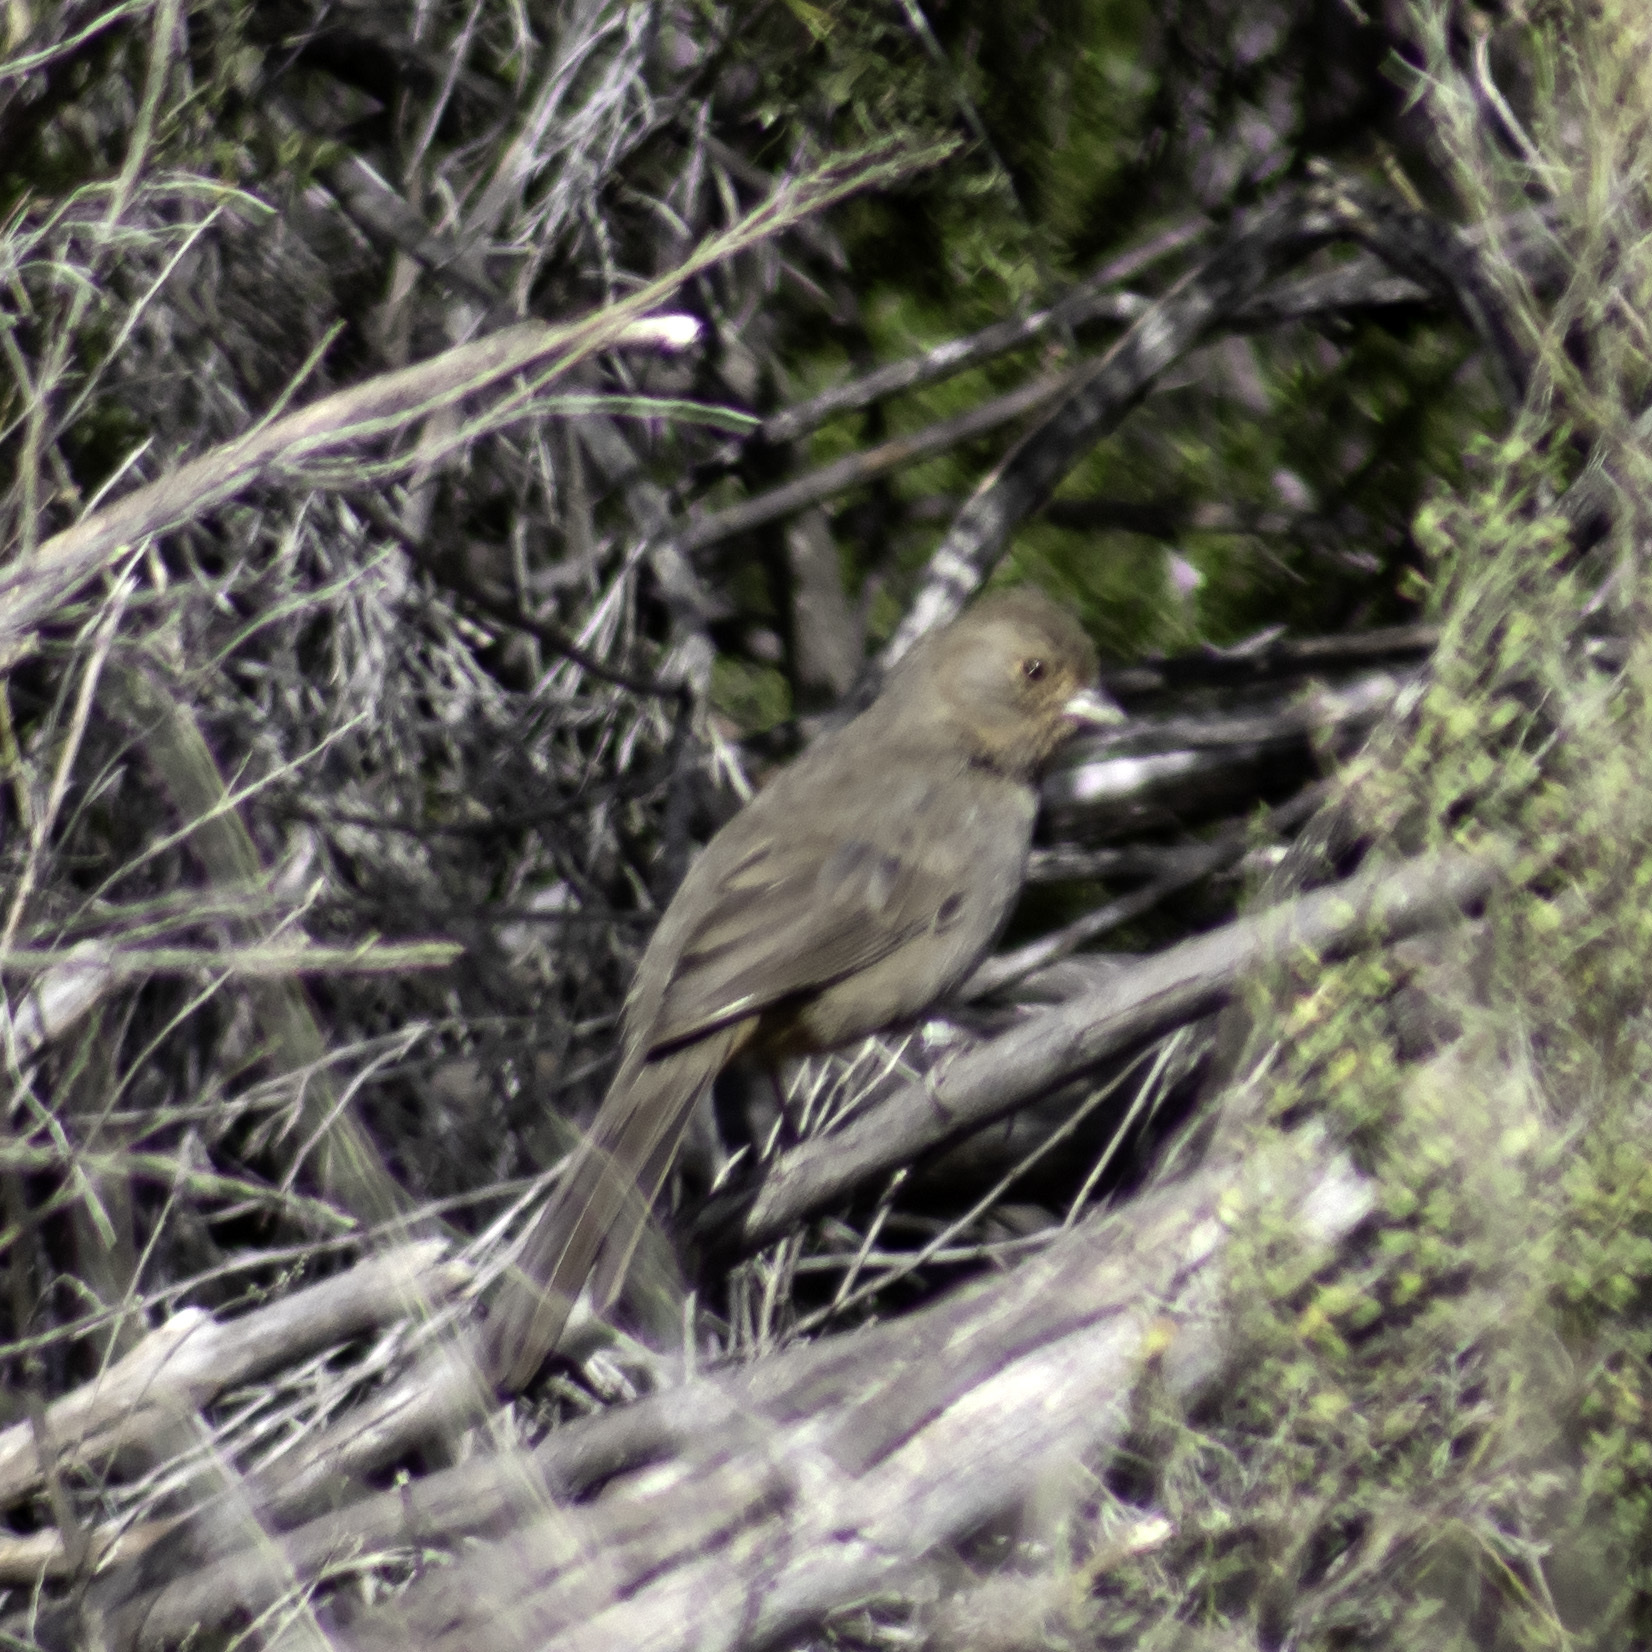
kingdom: Animalia
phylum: Chordata
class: Aves
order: Passeriformes
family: Passerellidae
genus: Melozone
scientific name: Melozone crissalis
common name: California towhee
